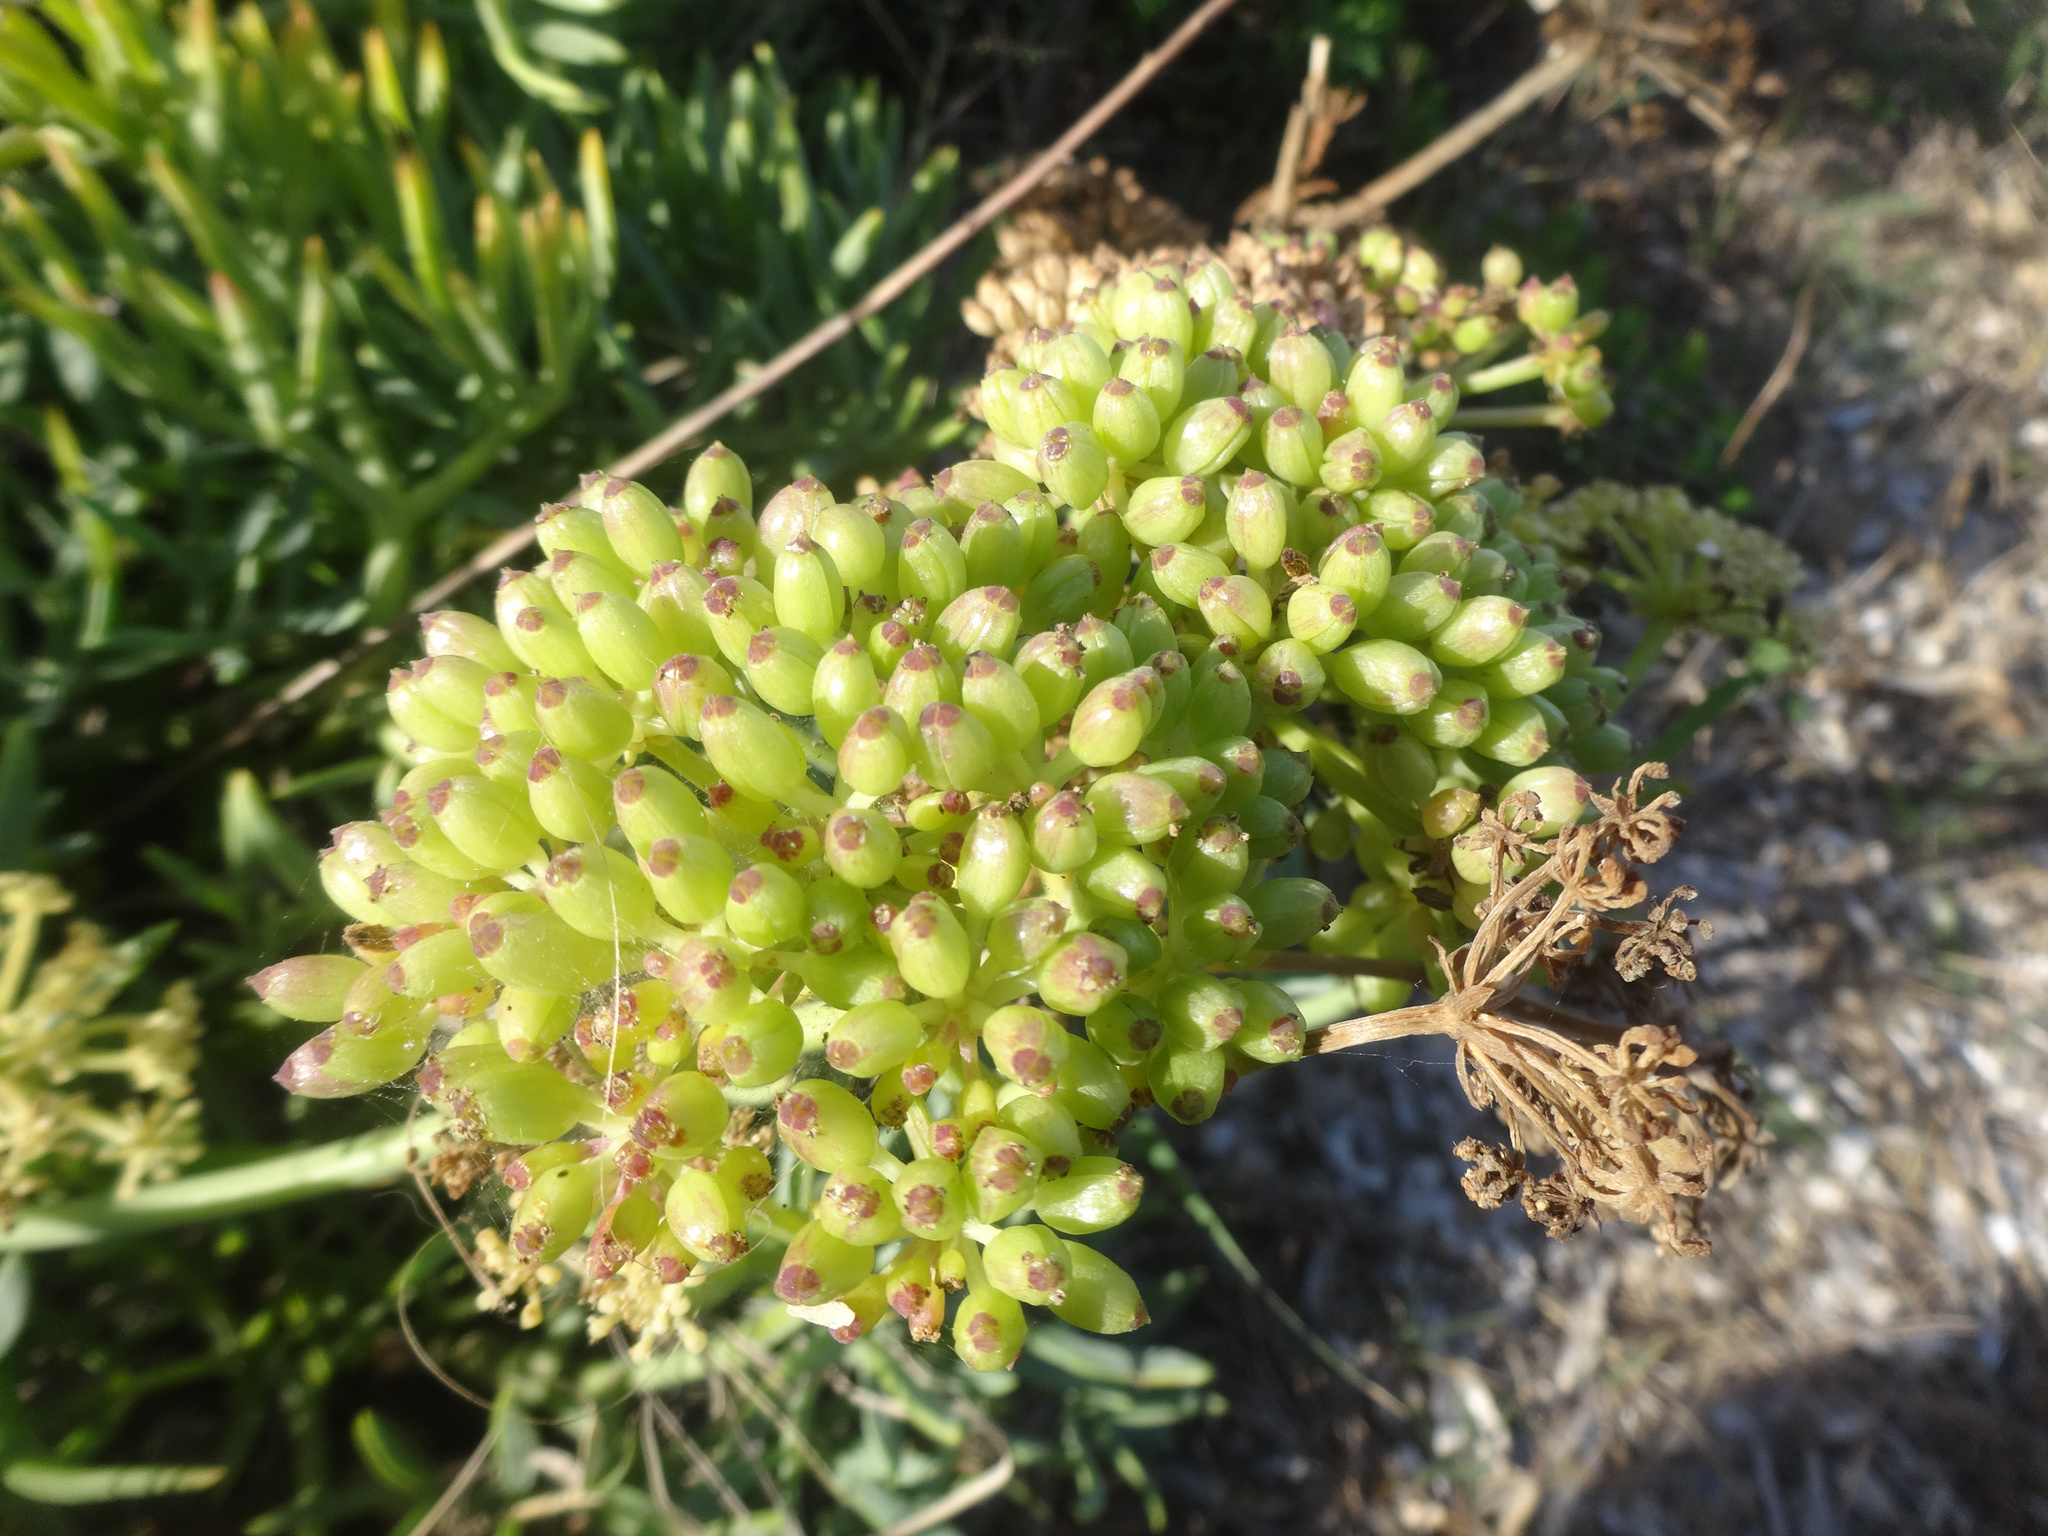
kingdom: Plantae
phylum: Tracheophyta
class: Magnoliopsida
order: Apiales
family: Apiaceae
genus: Crithmum
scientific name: Crithmum maritimum
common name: Rock samphire
